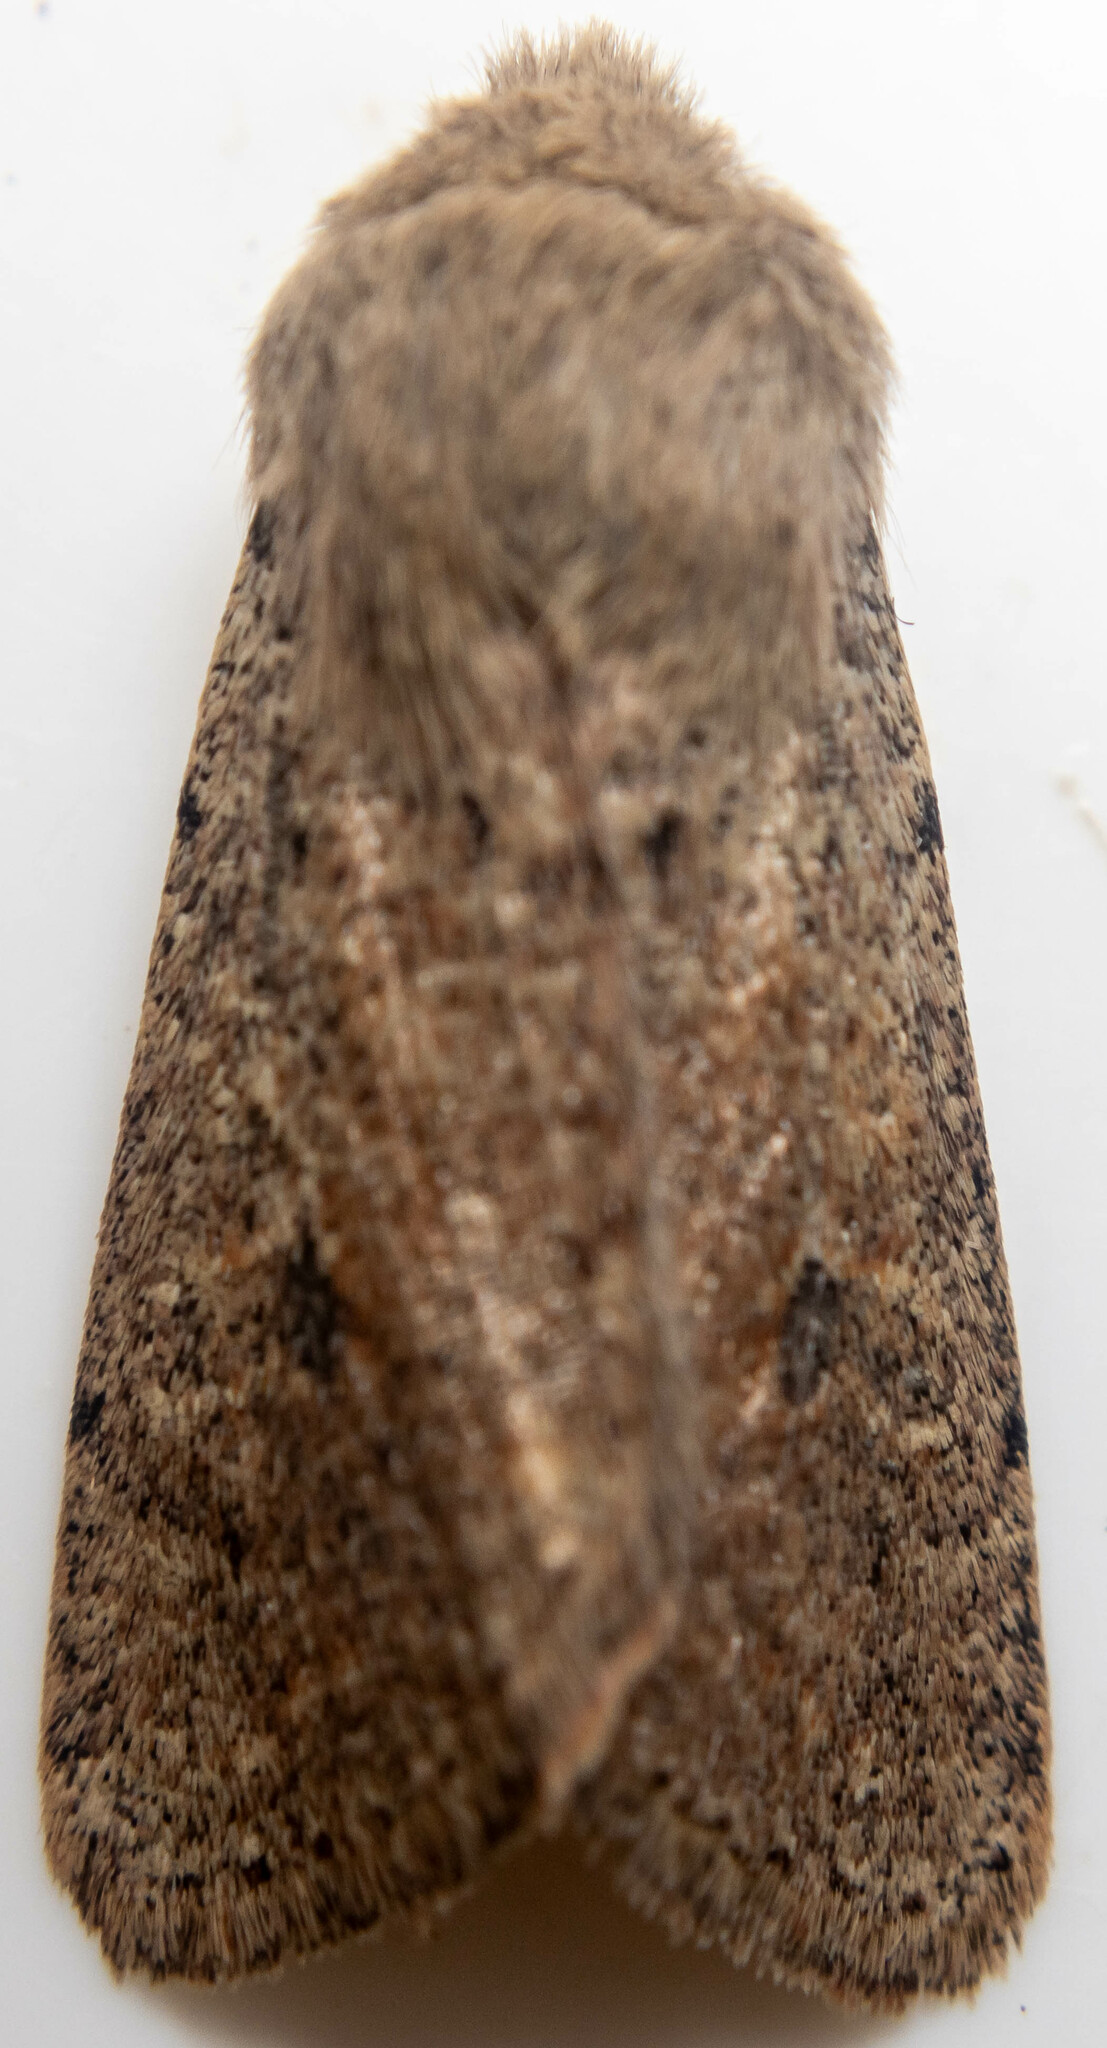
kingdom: Animalia
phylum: Arthropoda
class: Insecta
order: Lepidoptera
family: Noctuidae
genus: Orthosia
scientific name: Orthosia cruda
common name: Small quaker
